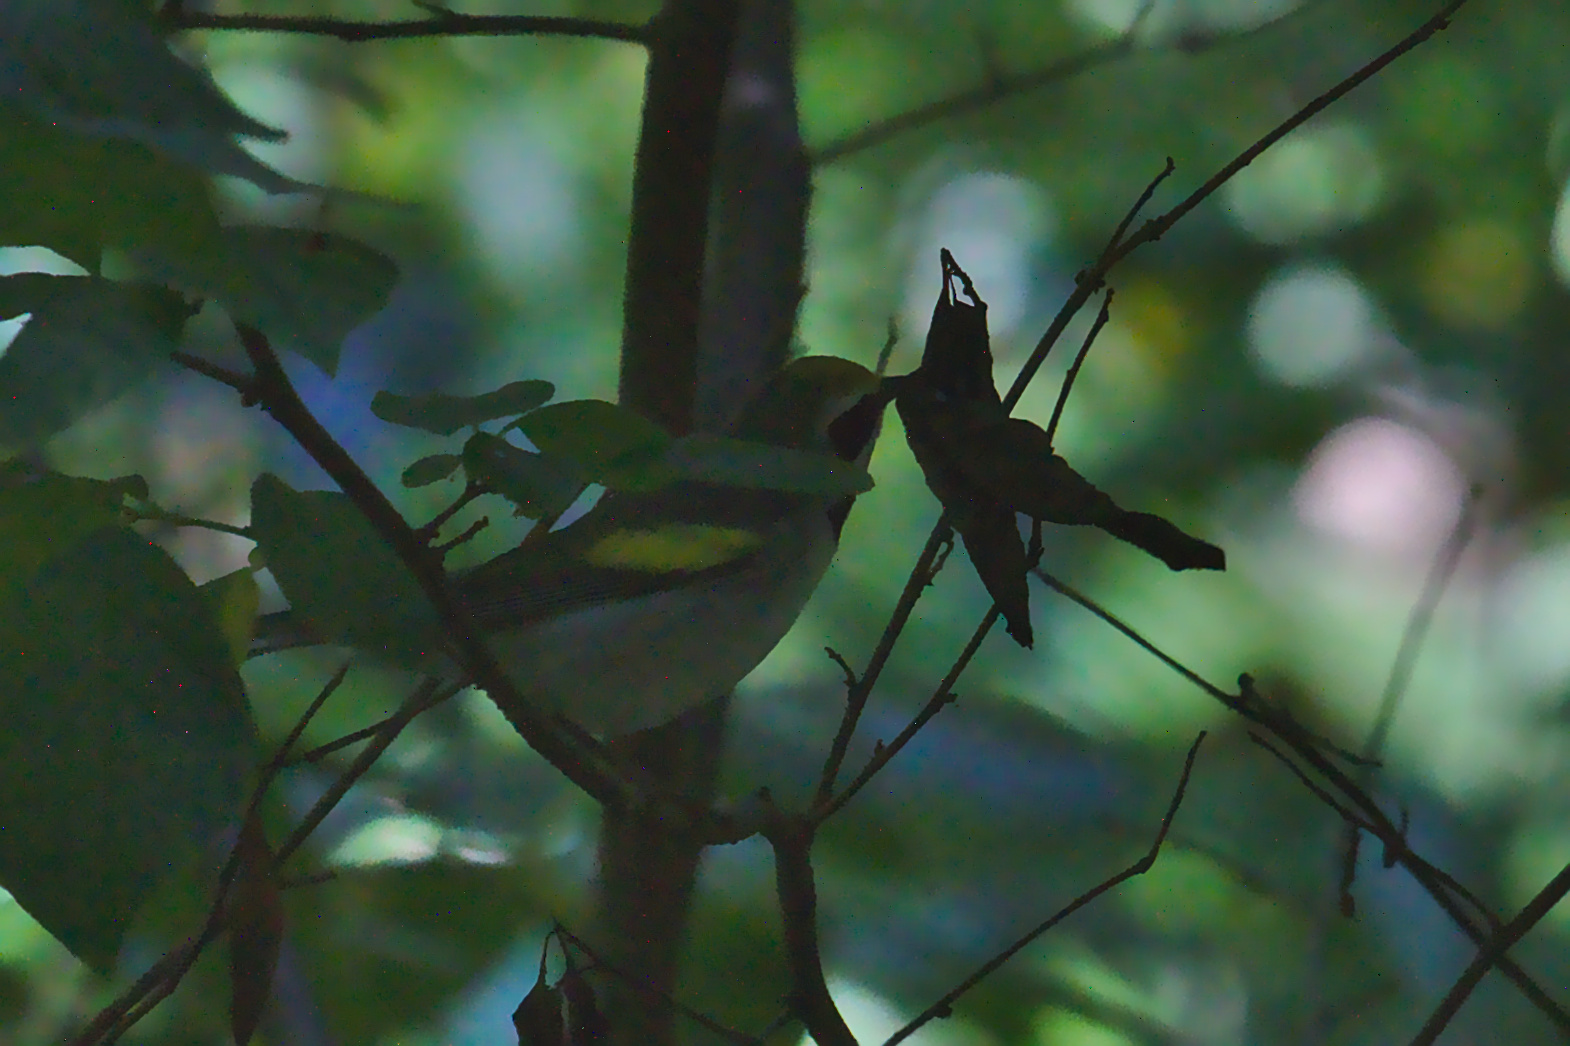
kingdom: Animalia
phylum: Chordata
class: Aves
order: Passeriformes
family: Parulidae
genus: Vermivora
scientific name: Vermivora chrysoptera
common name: Golden-winged warbler
